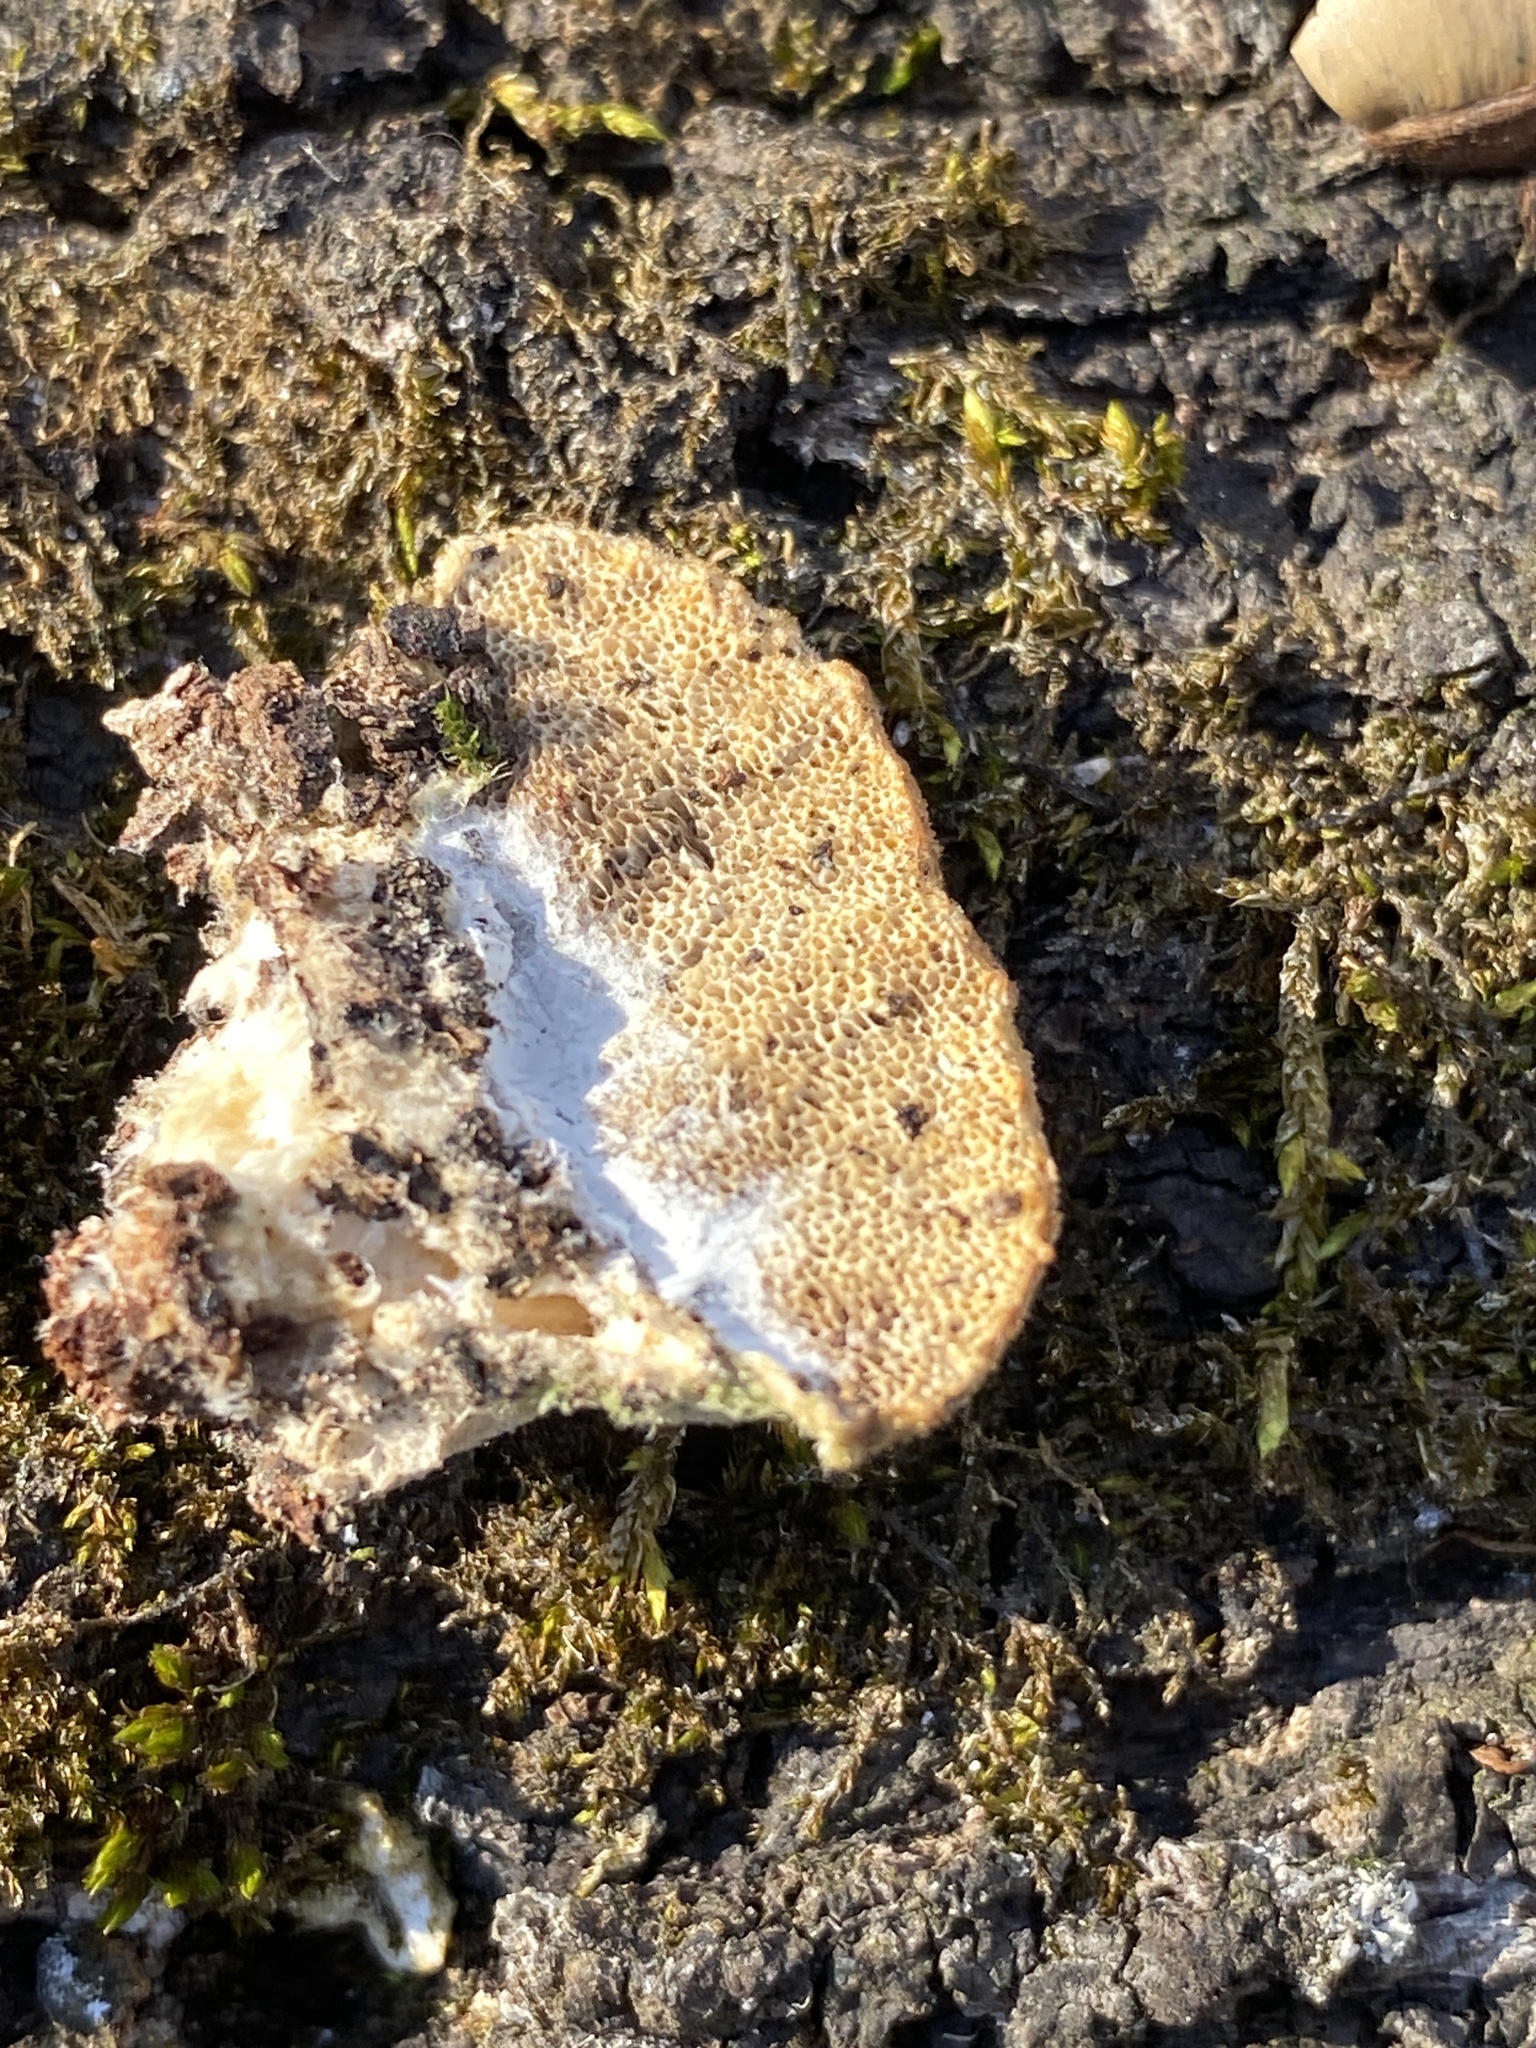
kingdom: Fungi
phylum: Basidiomycota
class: Agaricomycetes
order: Polyporales
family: Polyporaceae
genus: Trametes
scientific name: Trametes hirsuta
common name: Hairy bracket
